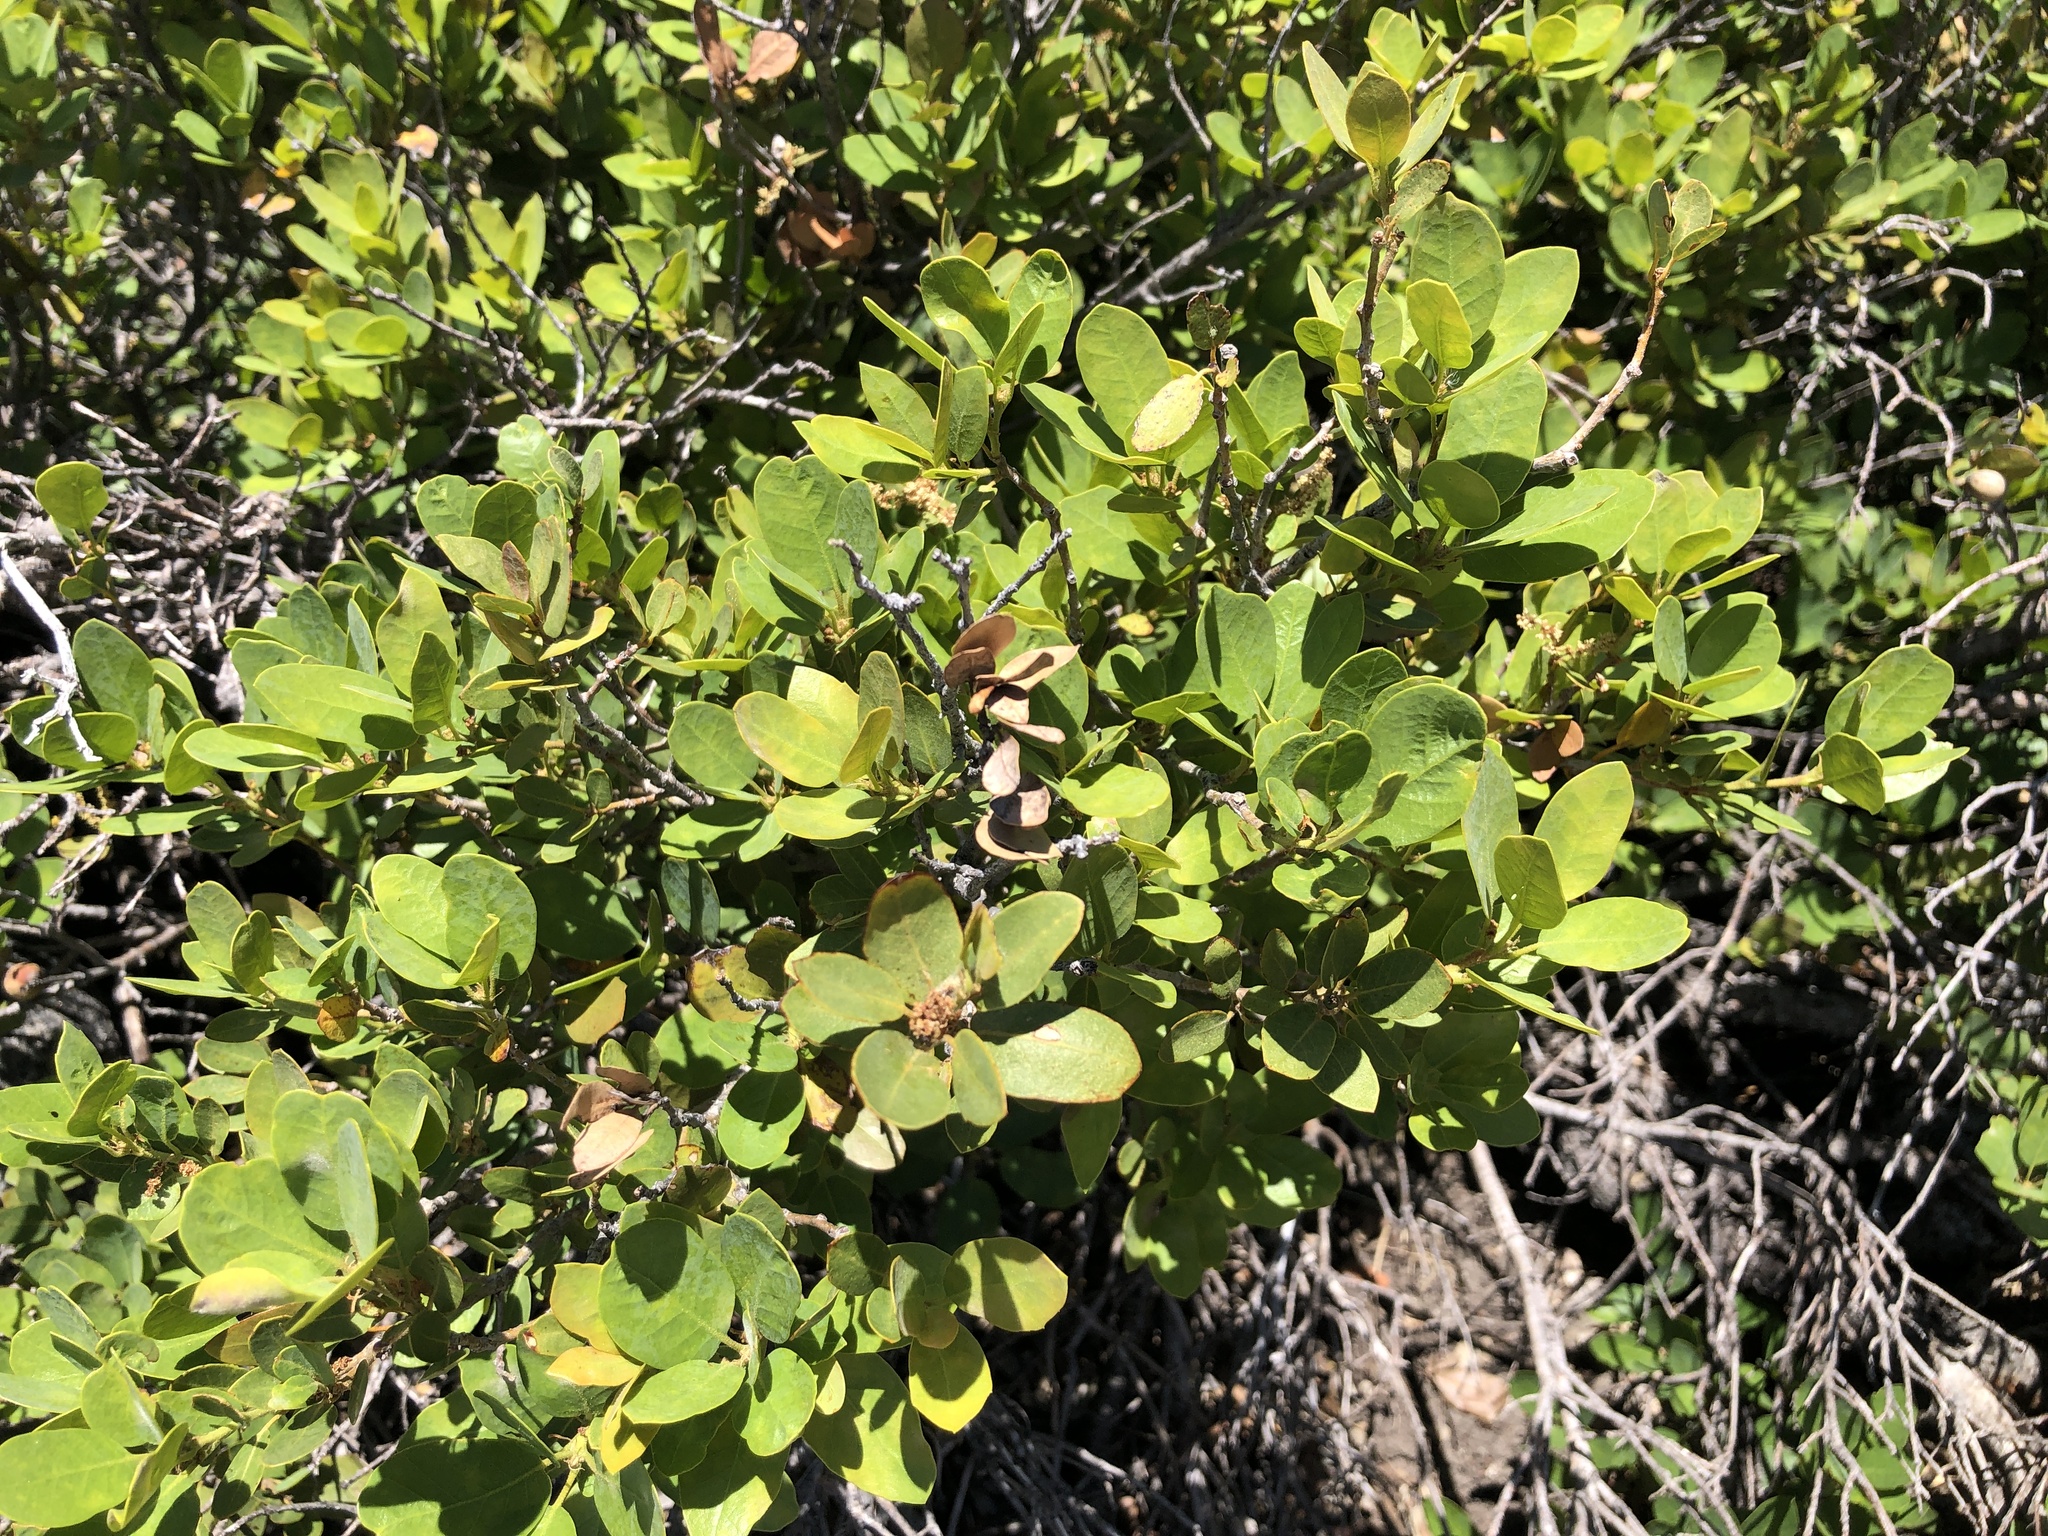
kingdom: Plantae
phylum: Tracheophyta
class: Magnoliopsida
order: Fagales
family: Fagaceae
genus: Quercus
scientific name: Quercus vacciniifolia
